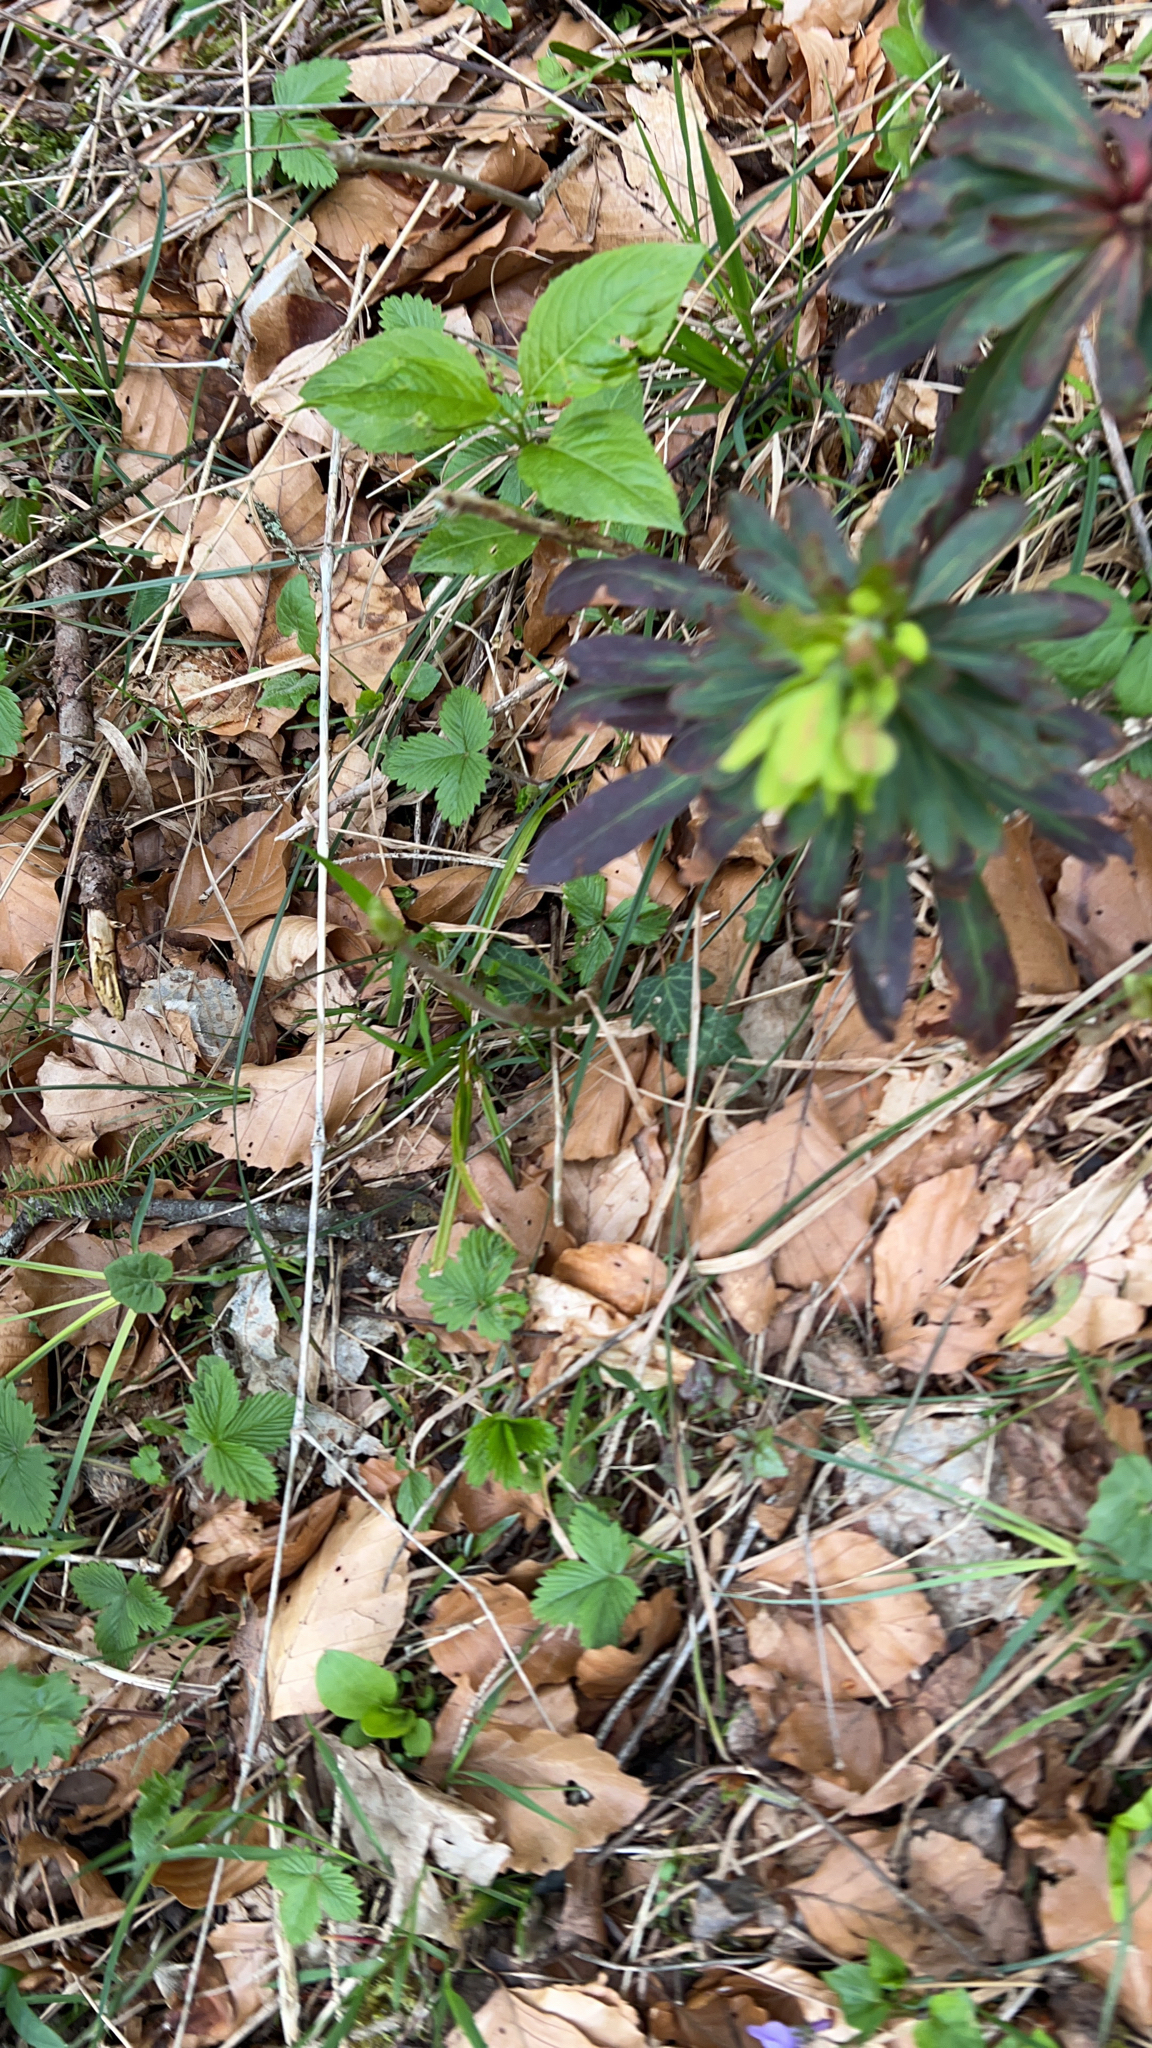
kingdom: Plantae
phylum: Tracheophyta
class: Magnoliopsida
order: Malpighiales
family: Euphorbiaceae
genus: Euphorbia
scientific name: Euphorbia amygdaloides
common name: Wood spurge
